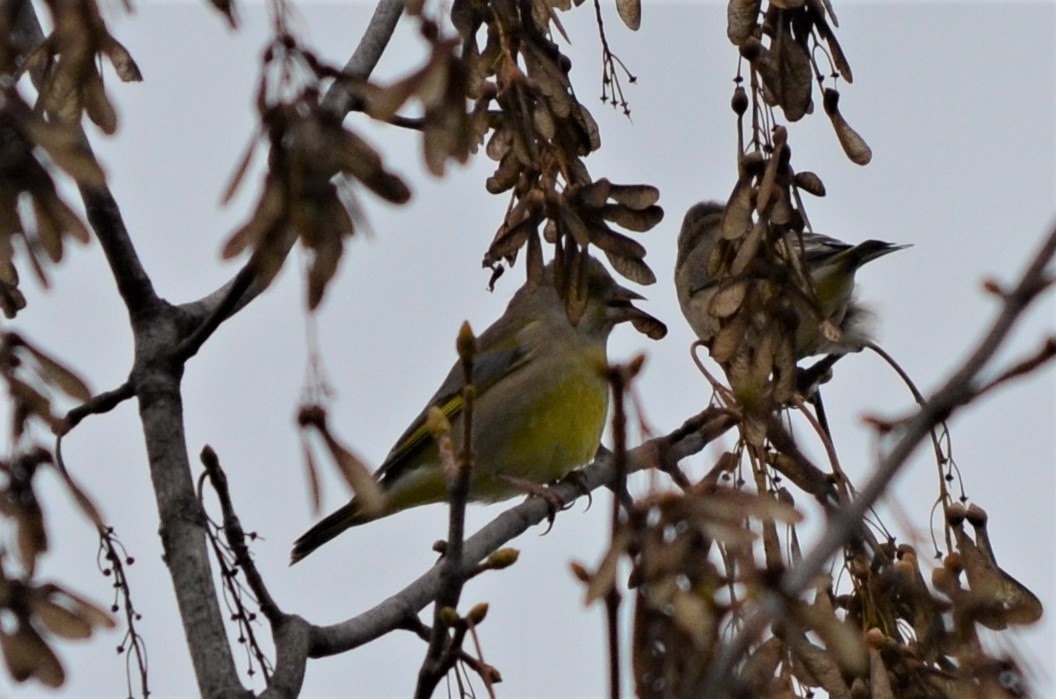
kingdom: Plantae
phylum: Tracheophyta
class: Liliopsida
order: Poales
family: Poaceae
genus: Chloris
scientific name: Chloris chloris
